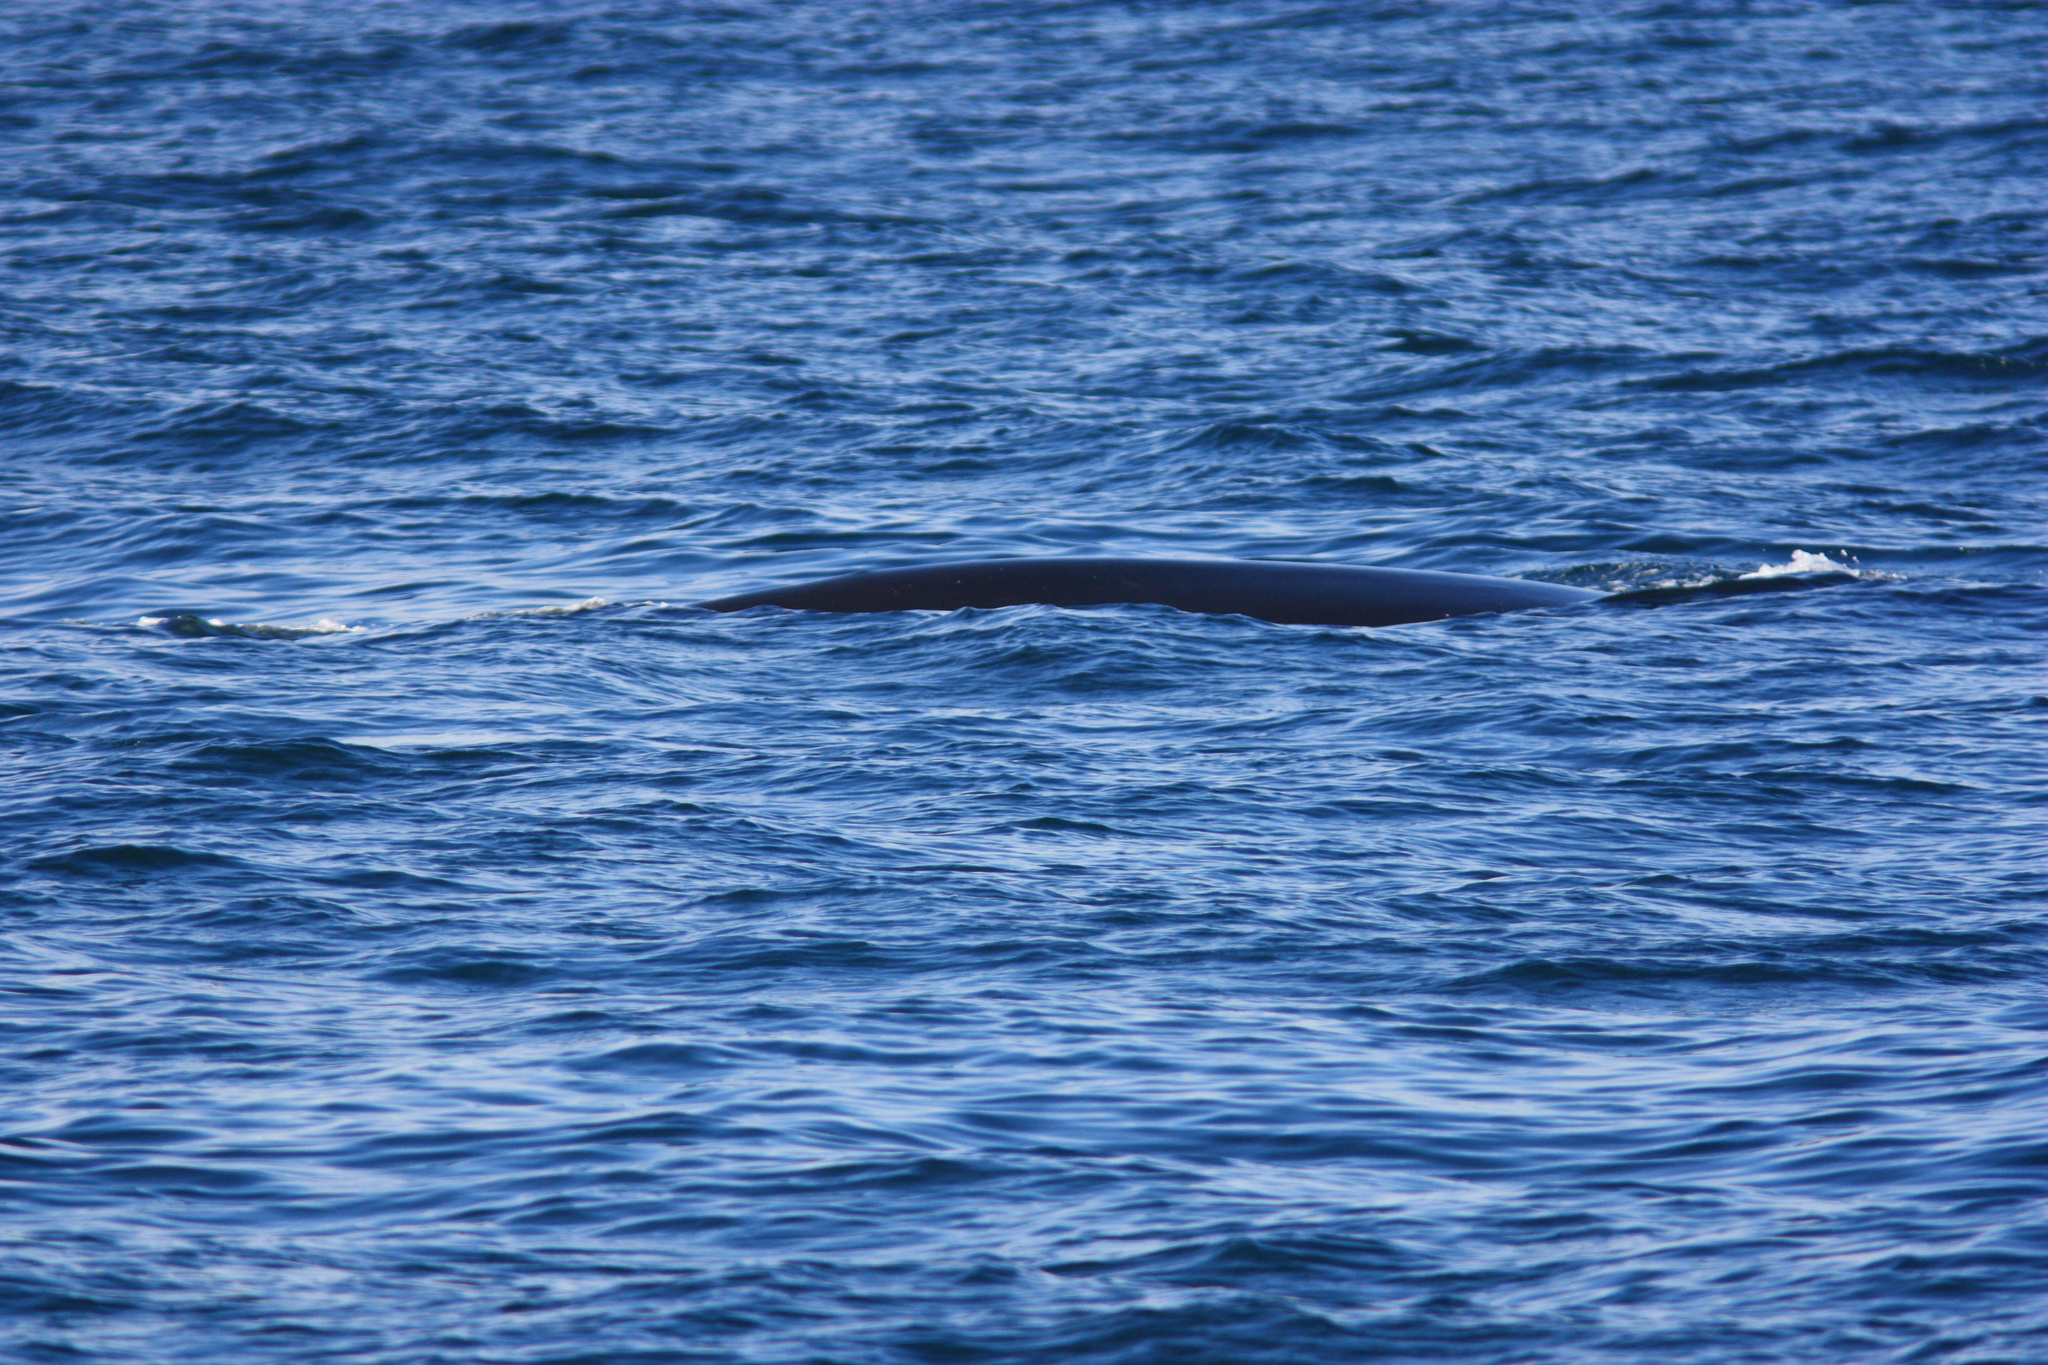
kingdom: Animalia
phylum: Chordata
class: Mammalia
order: Cetacea
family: Balaenidae
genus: Eubalaena
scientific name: Eubalaena glacialis
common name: North atlantic right whale
